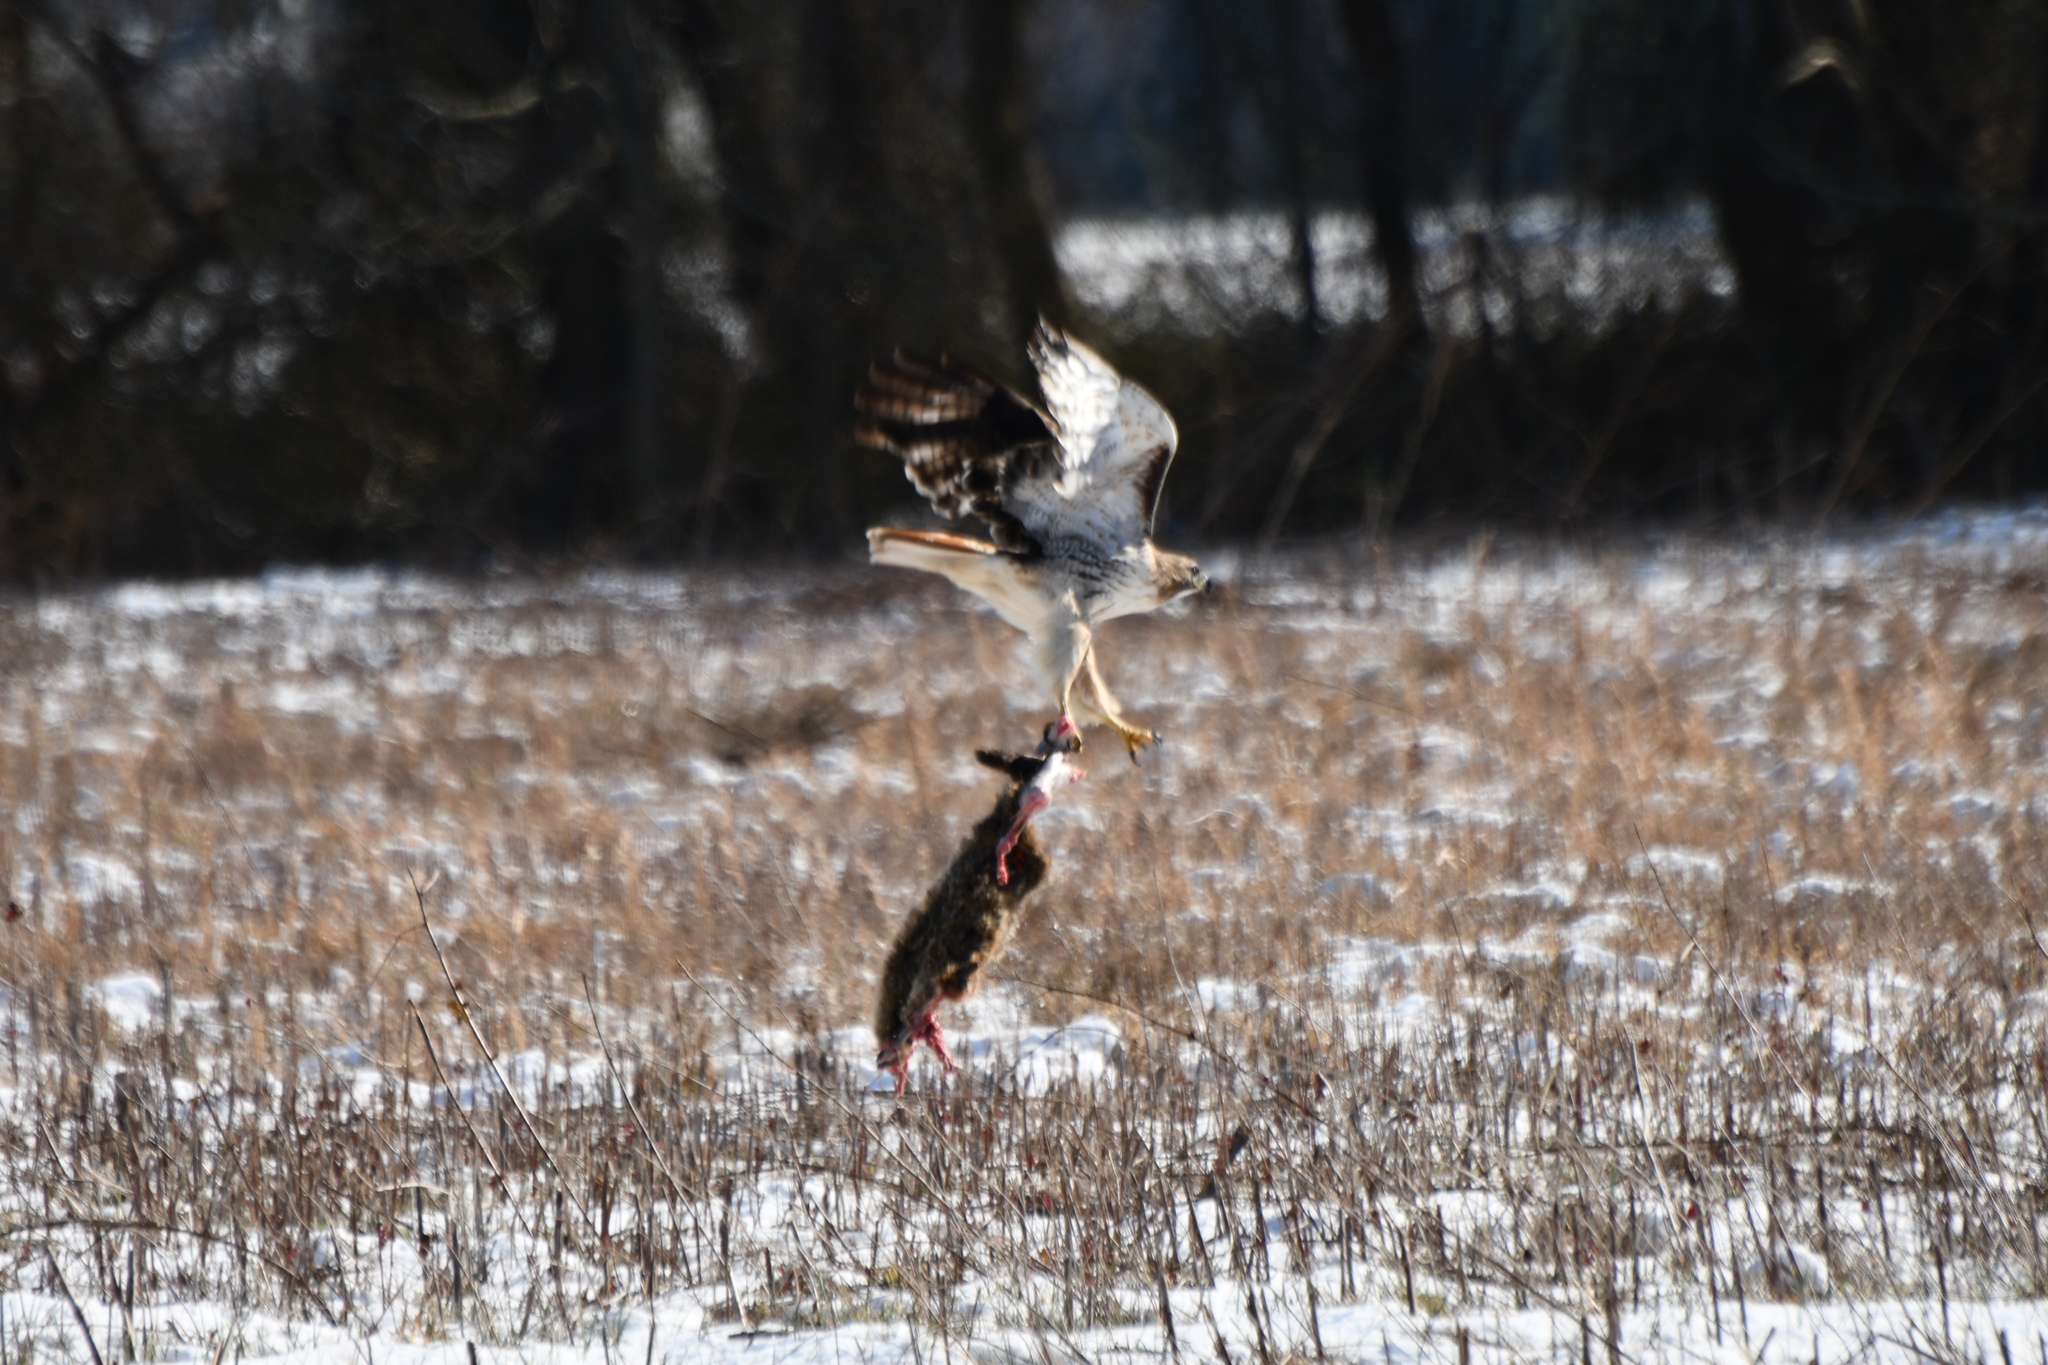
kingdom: Animalia
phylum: Chordata
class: Aves
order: Accipitriformes
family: Accipitridae
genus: Buteo
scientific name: Buteo jamaicensis
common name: Red-tailed hawk
